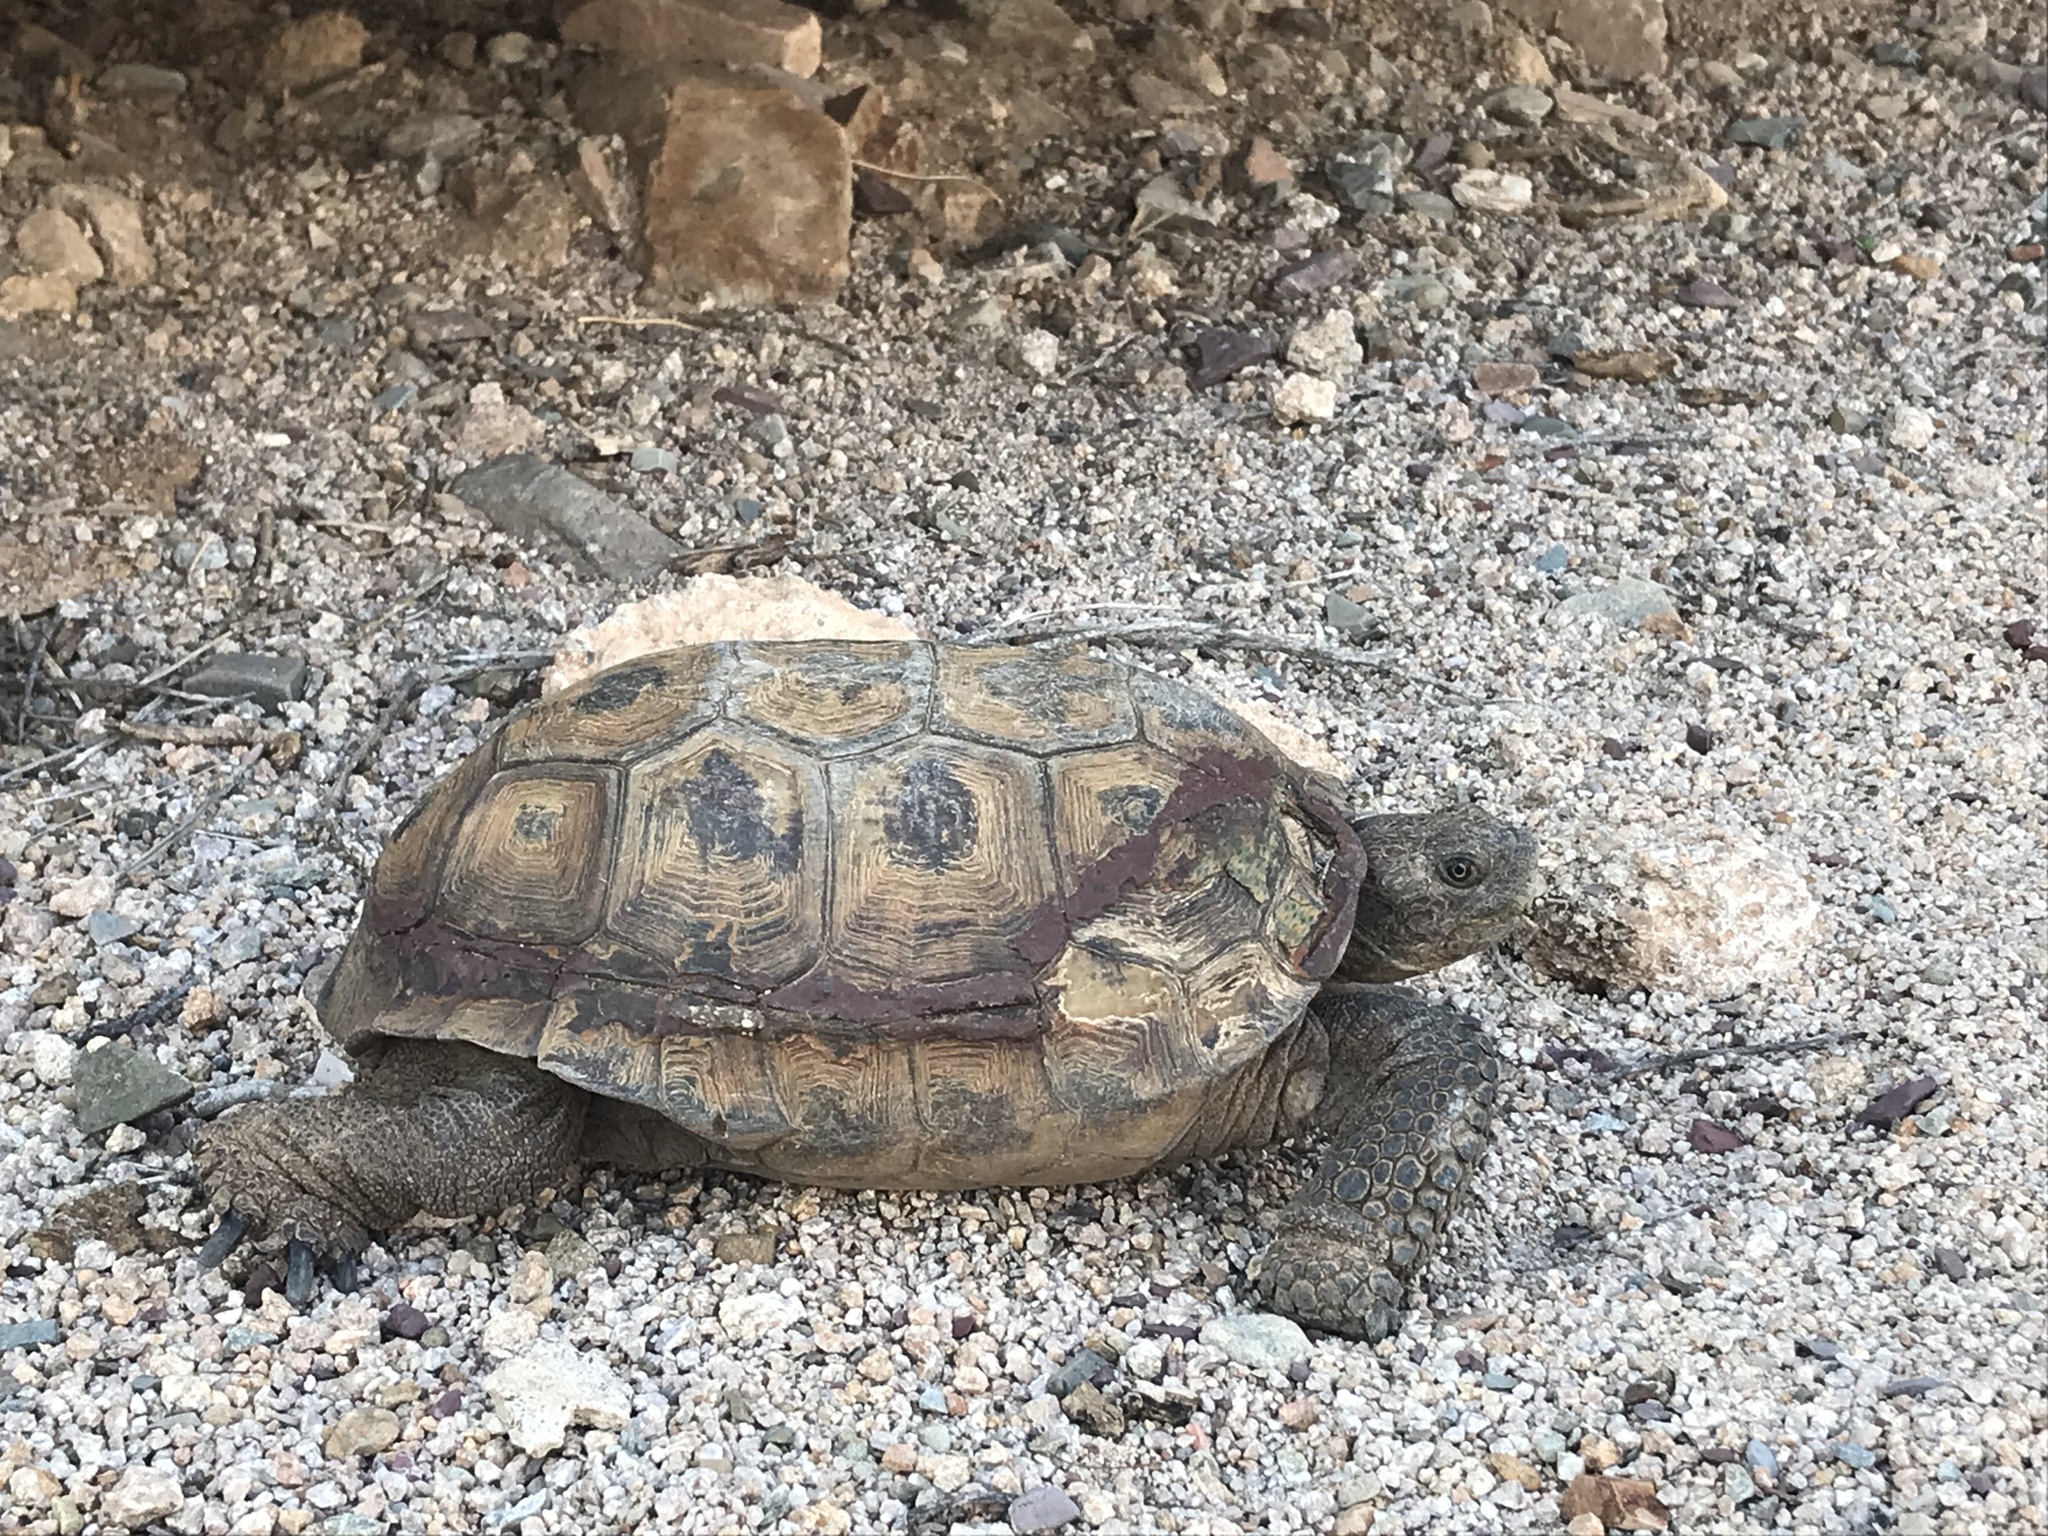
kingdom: Animalia
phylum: Chordata
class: Testudines
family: Testudinidae
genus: Gopherus
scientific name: Gopherus morafkai
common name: Sonoran desert tortoise
